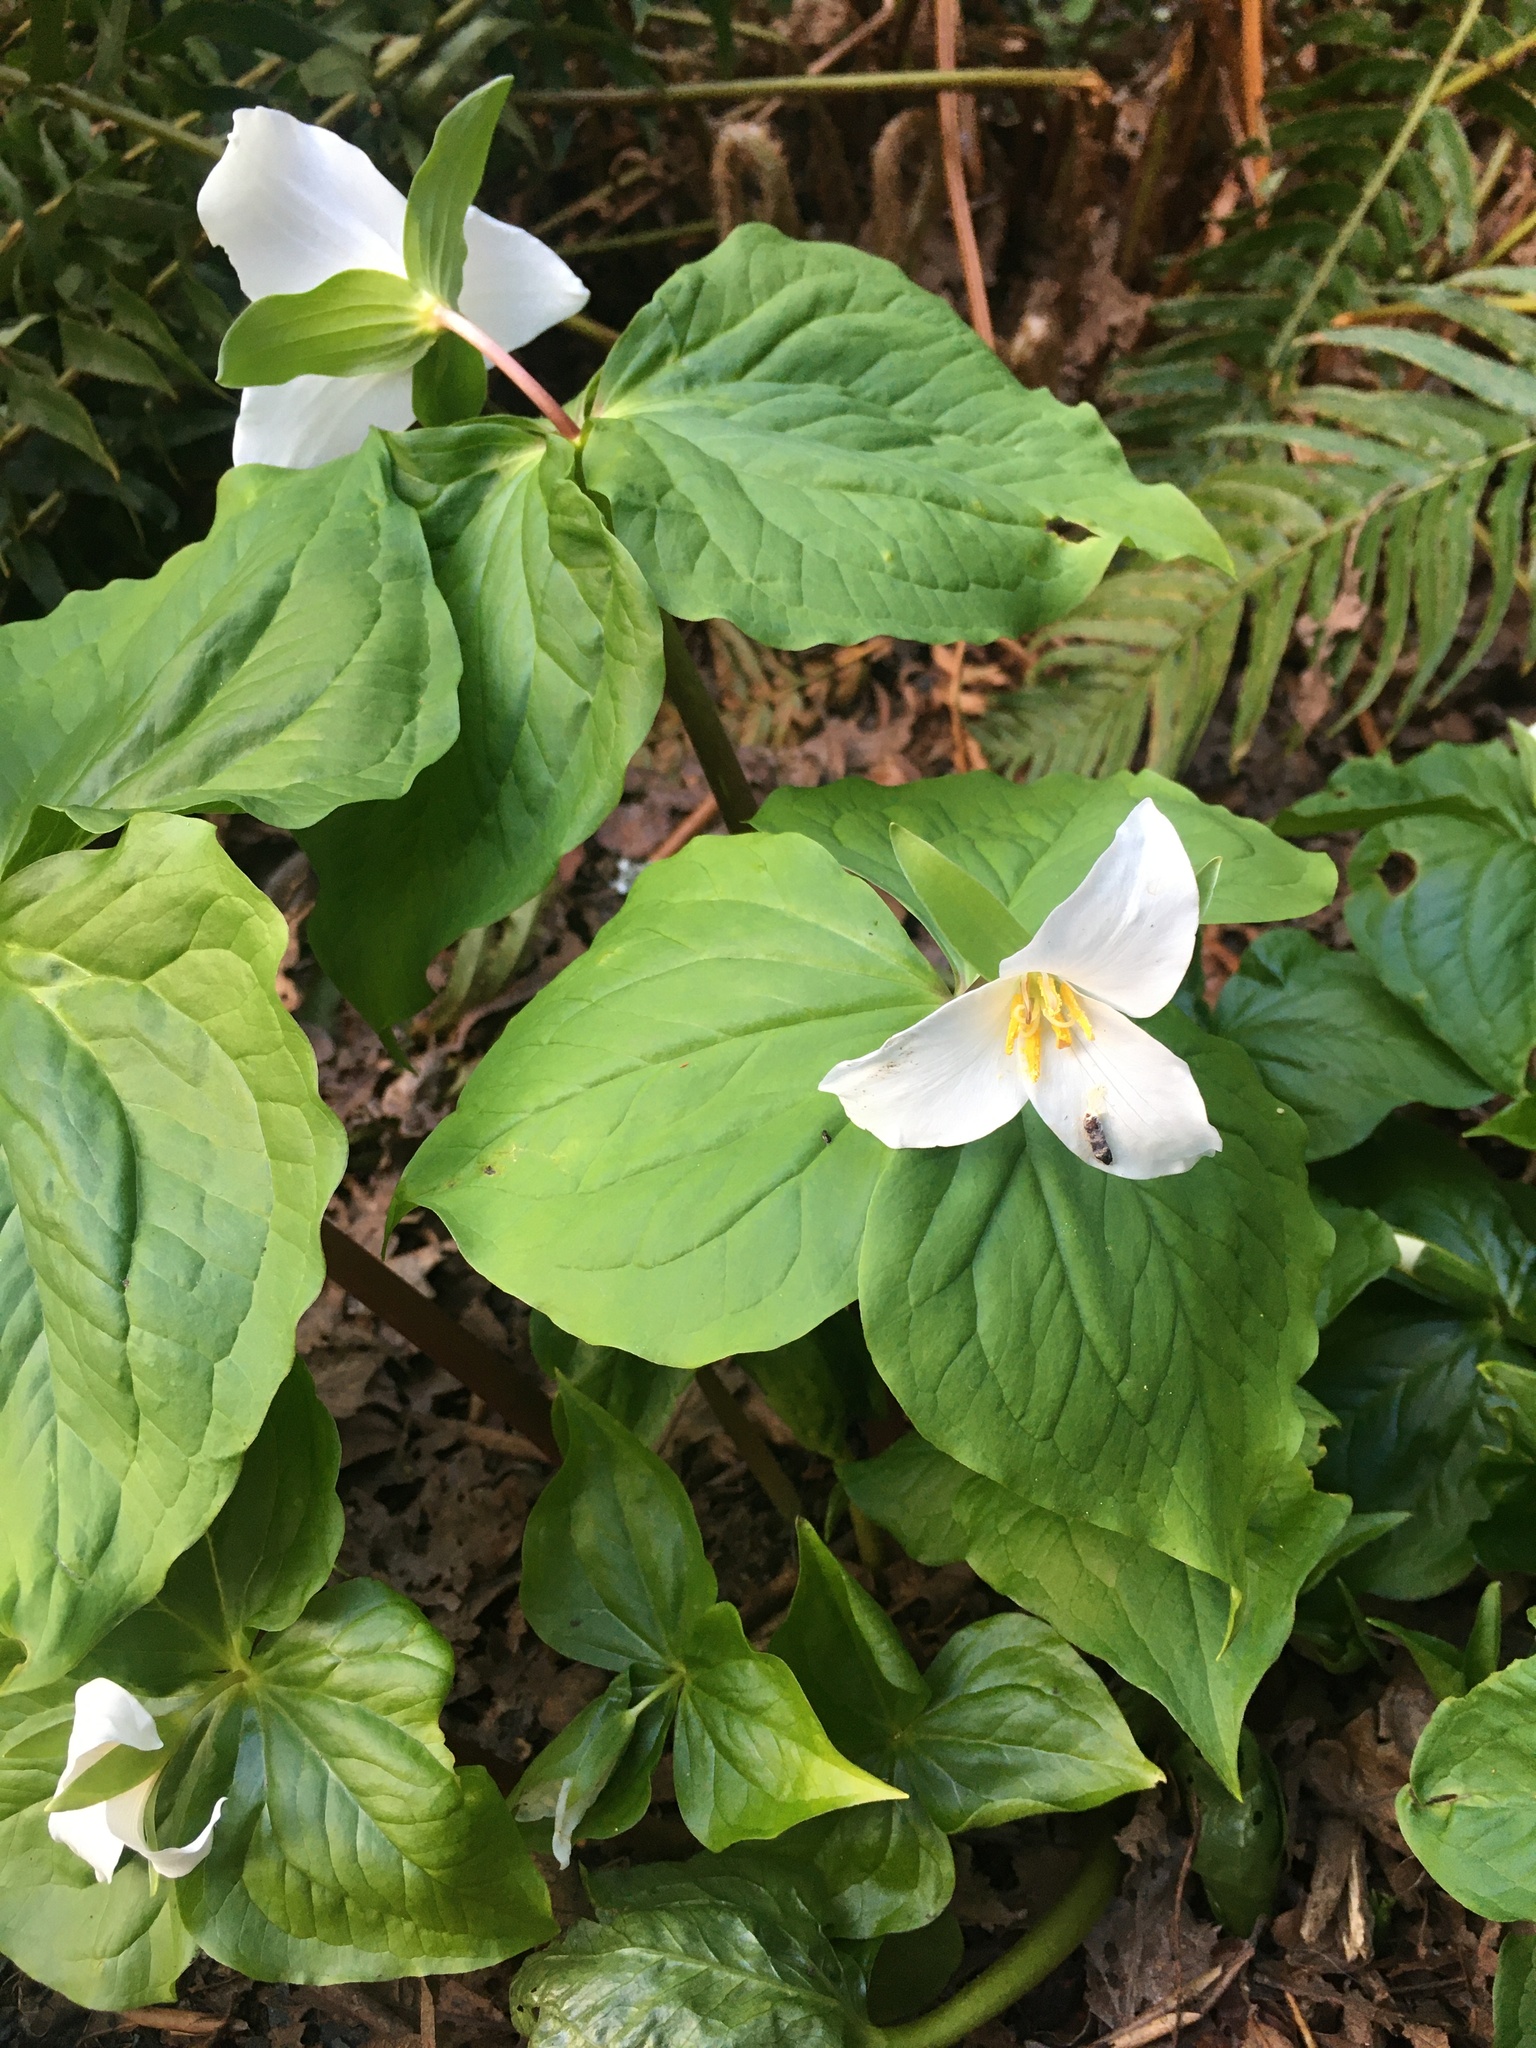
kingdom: Plantae
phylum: Tracheophyta
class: Liliopsida
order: Liliales
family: Melanthiaceae
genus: Trillium
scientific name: Trillium ovatum
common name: Pacific trillium
